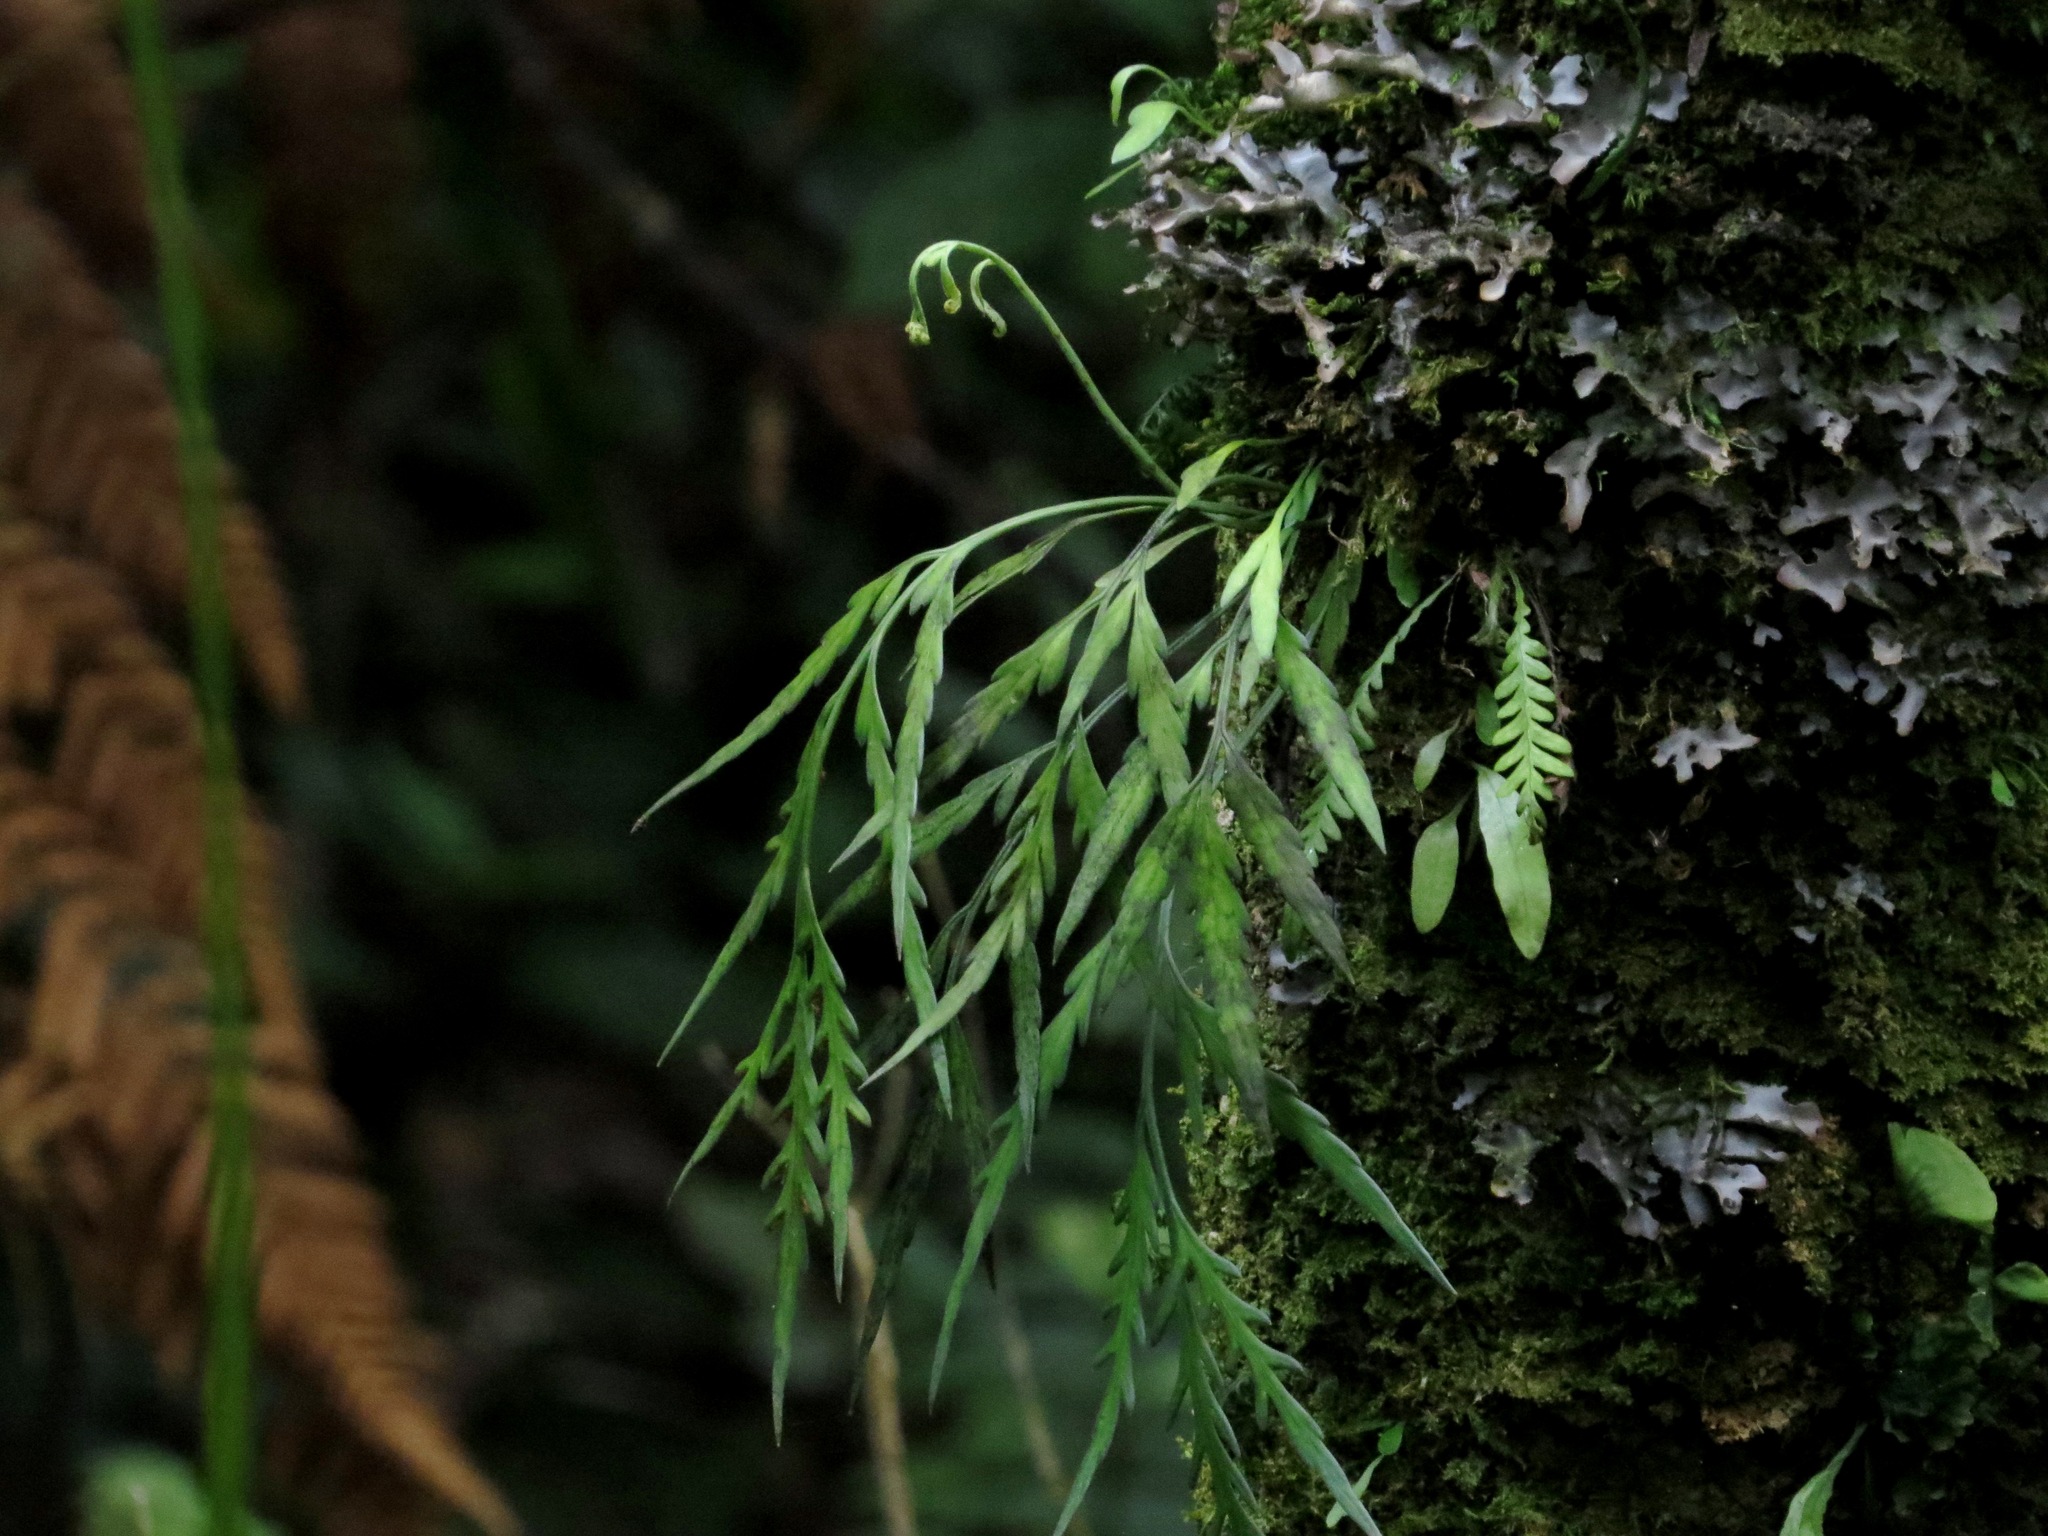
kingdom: Plantae
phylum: Tracheophyta
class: Polypodiopsida
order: Polypodiales
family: Aspleniaceae
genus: Asplenium
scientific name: Asplenium flaccidum
